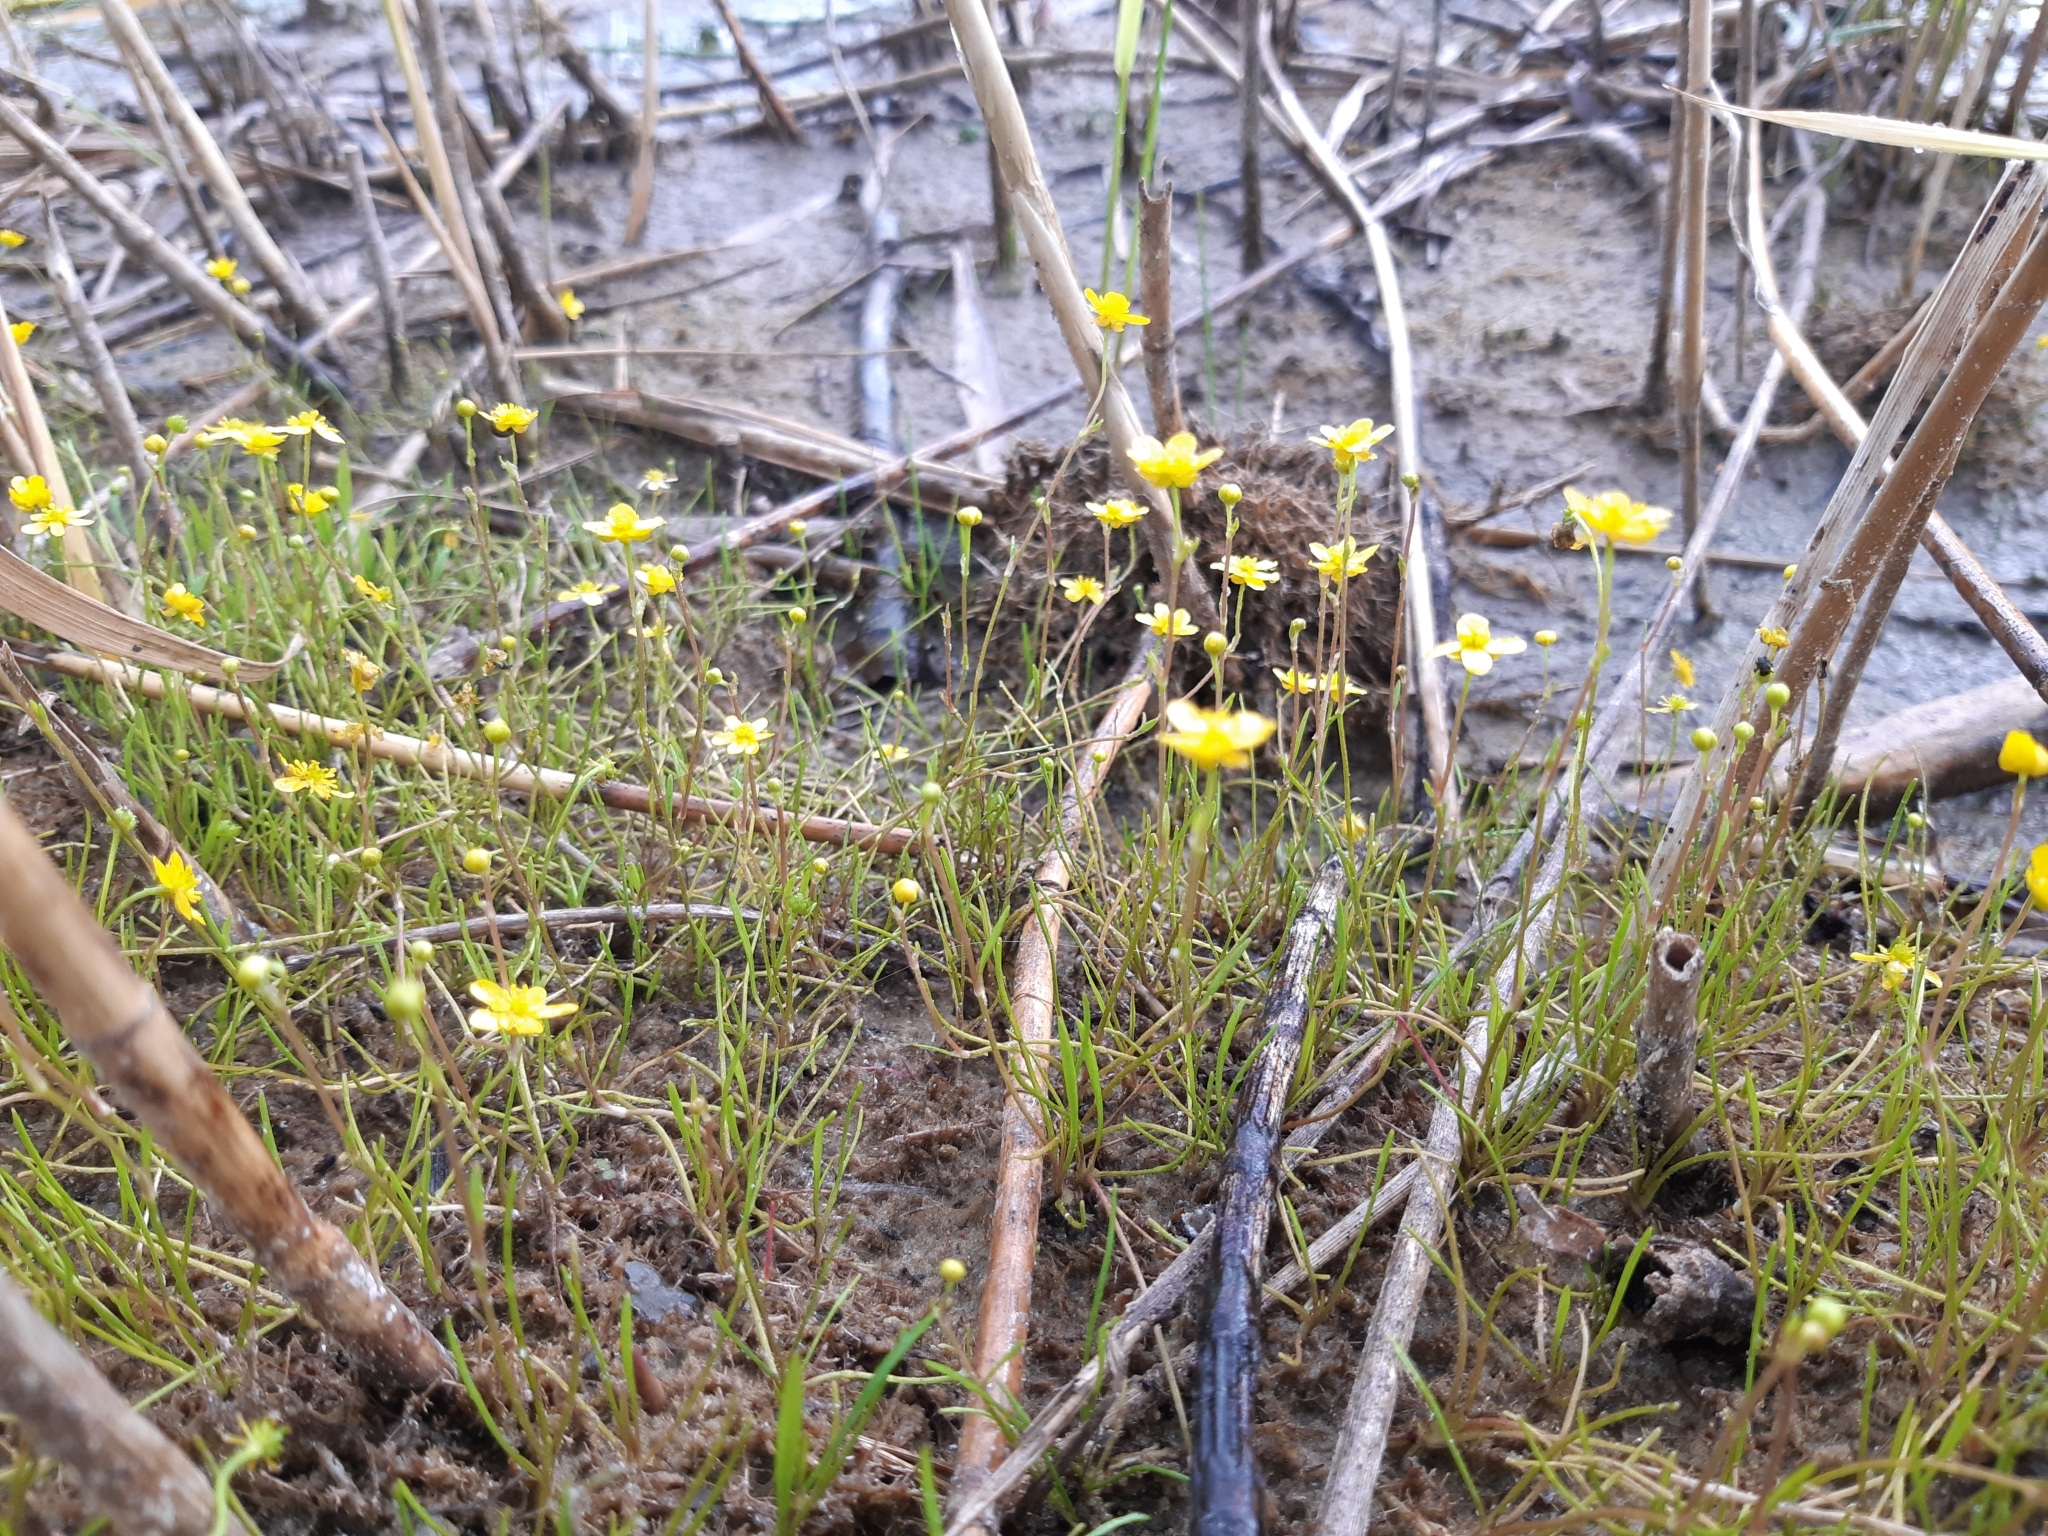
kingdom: Plantae
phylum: Tracheophyta
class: Magnoliopsida
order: Ranunculales
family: Ranunculaceae
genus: Ranunculus
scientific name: Ranunculus flammula
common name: Lesser spearwort
